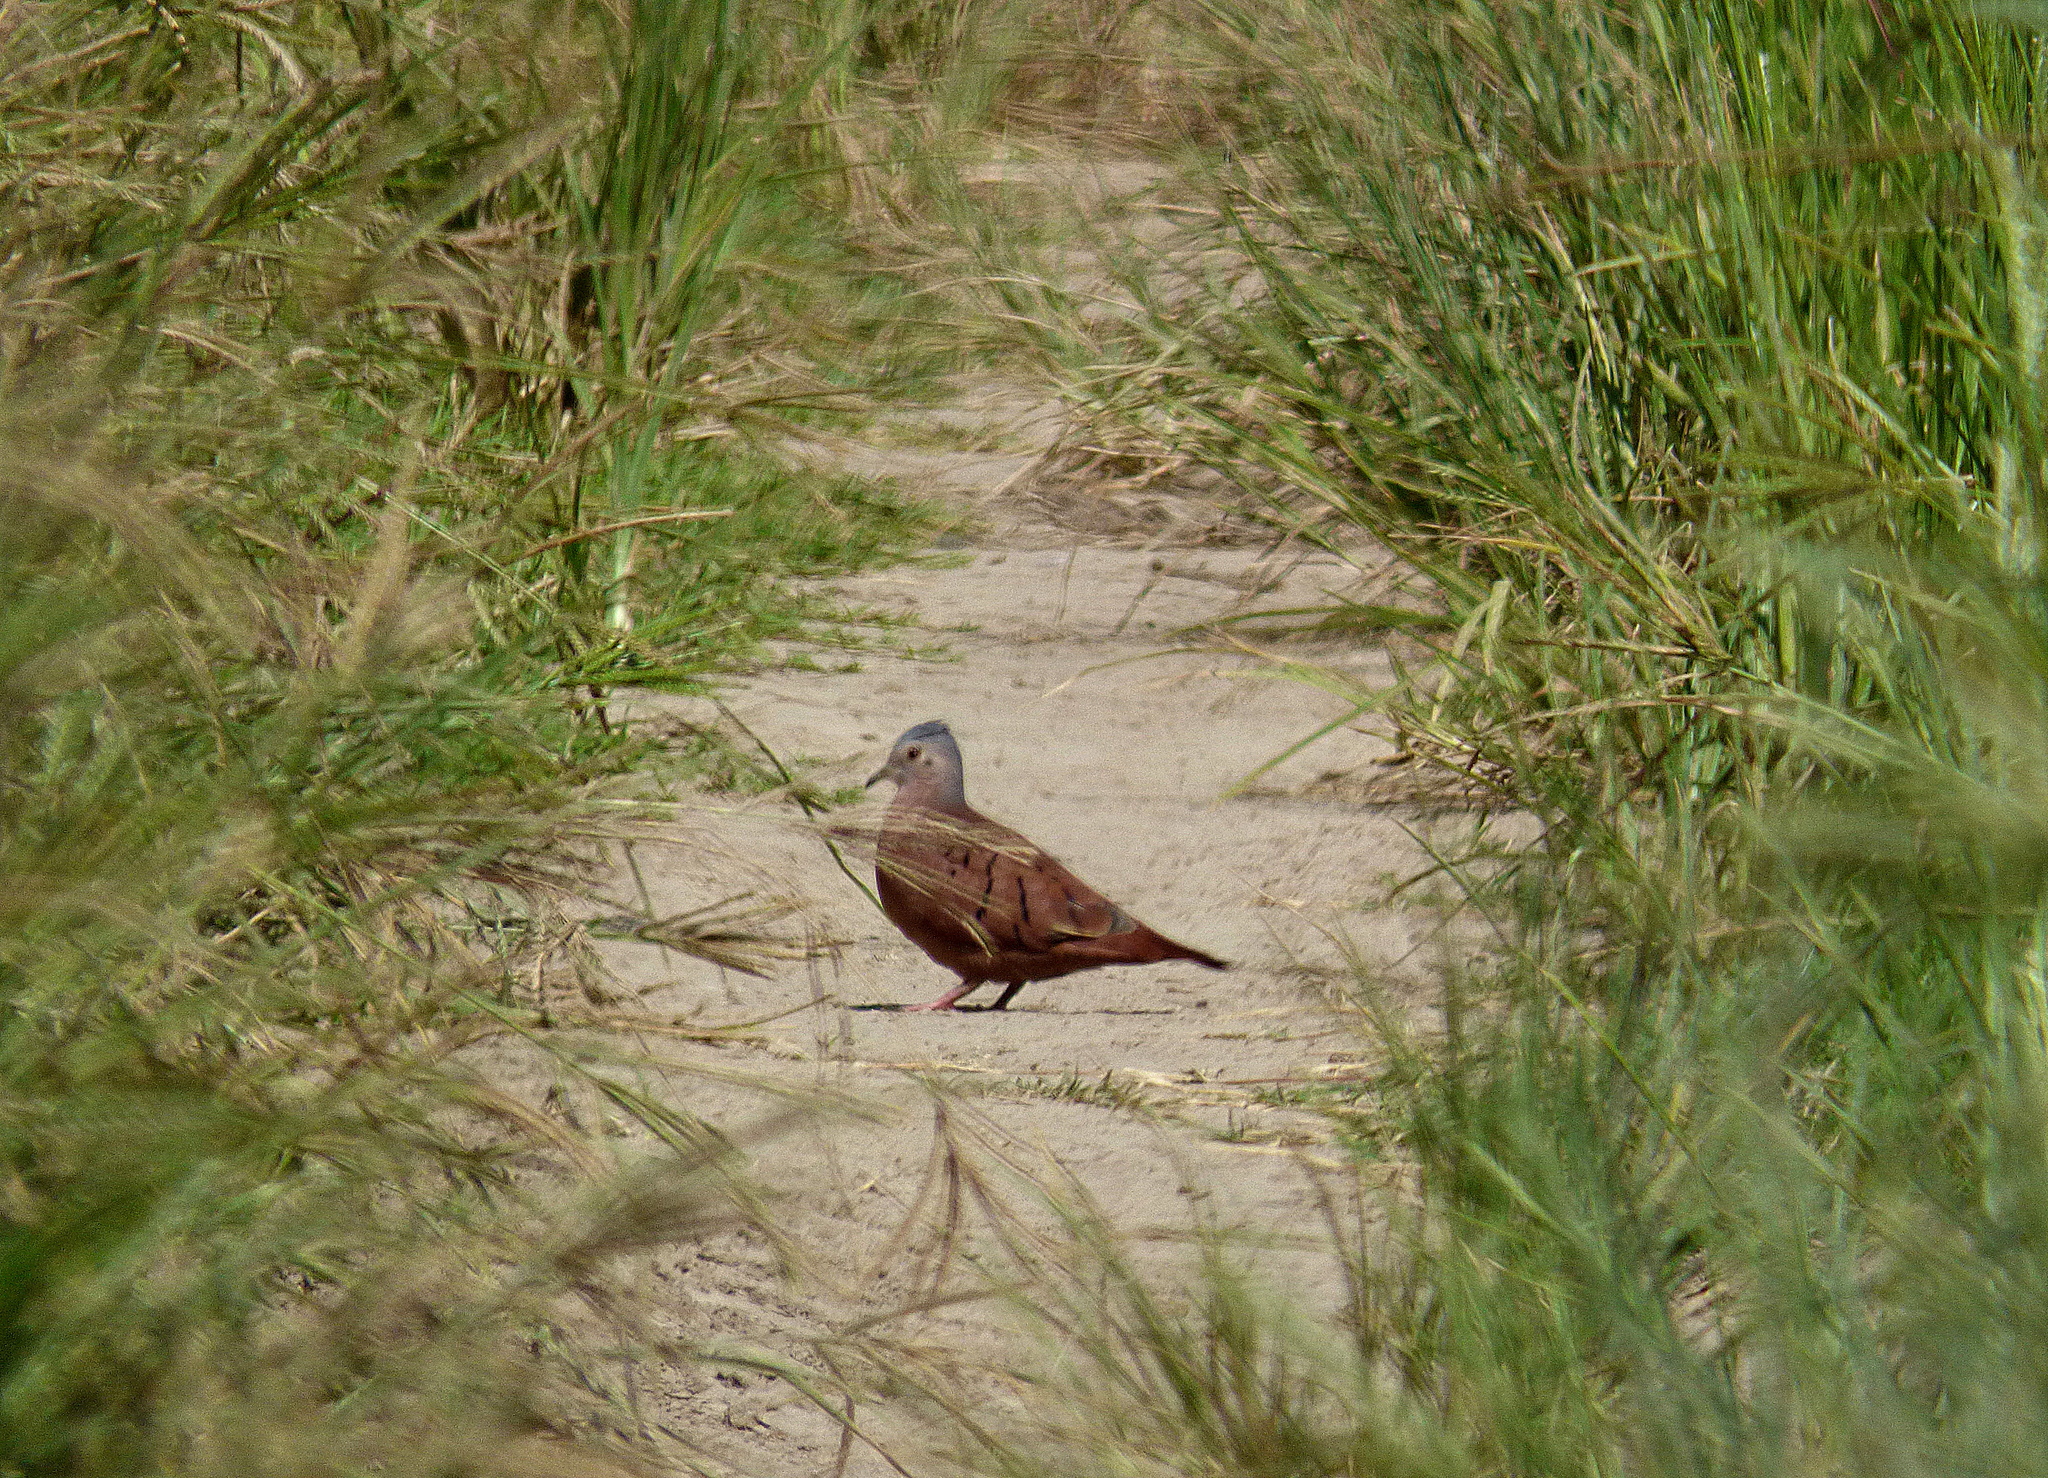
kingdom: Animalia
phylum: Chordata
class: Aves
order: Columbiformes
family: Columbidae
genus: Columbina
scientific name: Columbina talpacoti
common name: Ruddy ground dove
